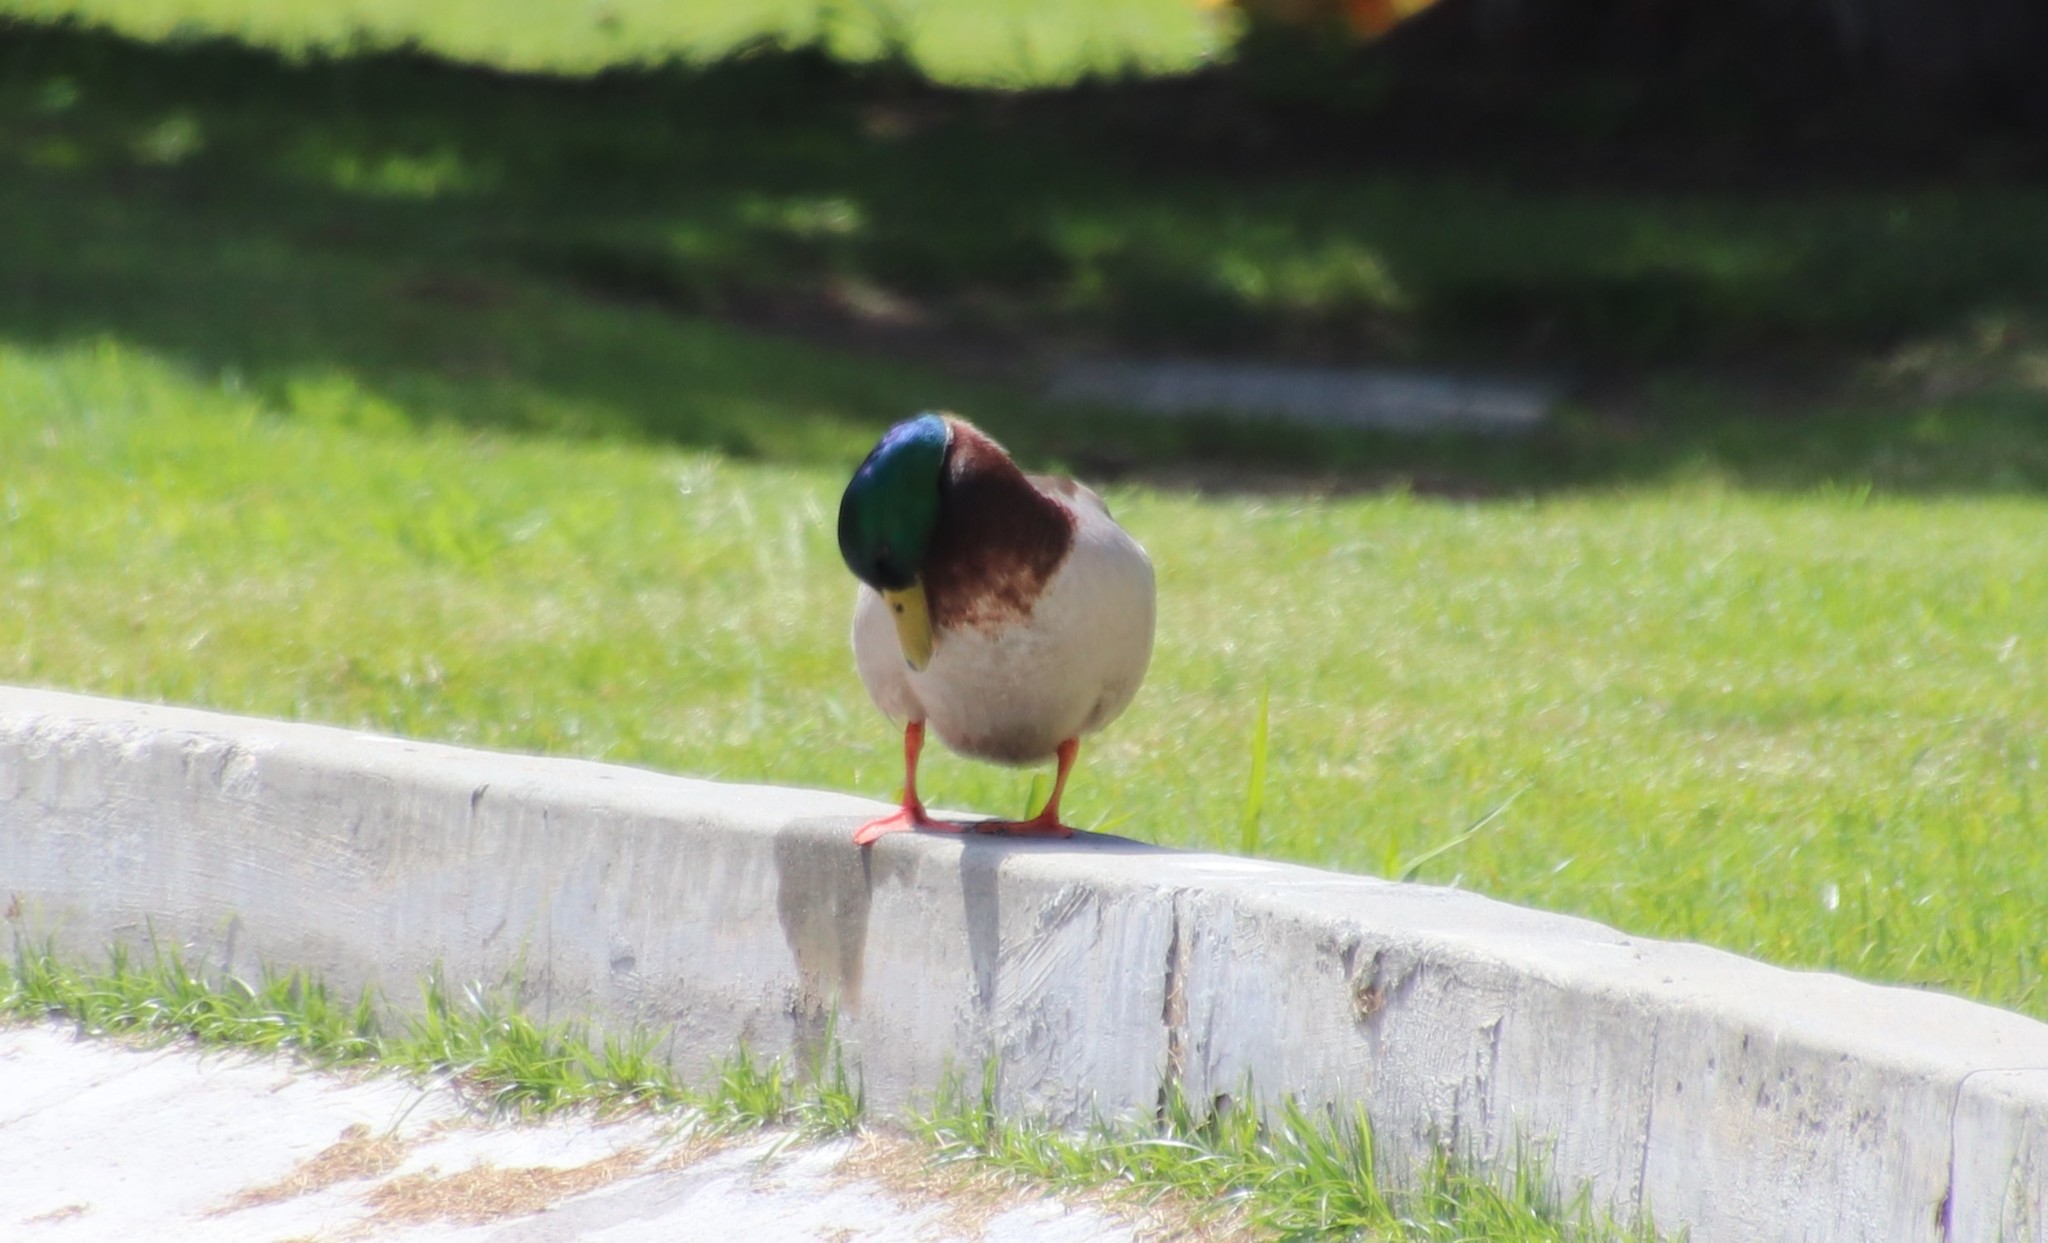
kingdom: Animalia
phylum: Chordata
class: Aves
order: Anseriformes
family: Anatidae
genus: Anas
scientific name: Anas platyrhynchos
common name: Mallard
